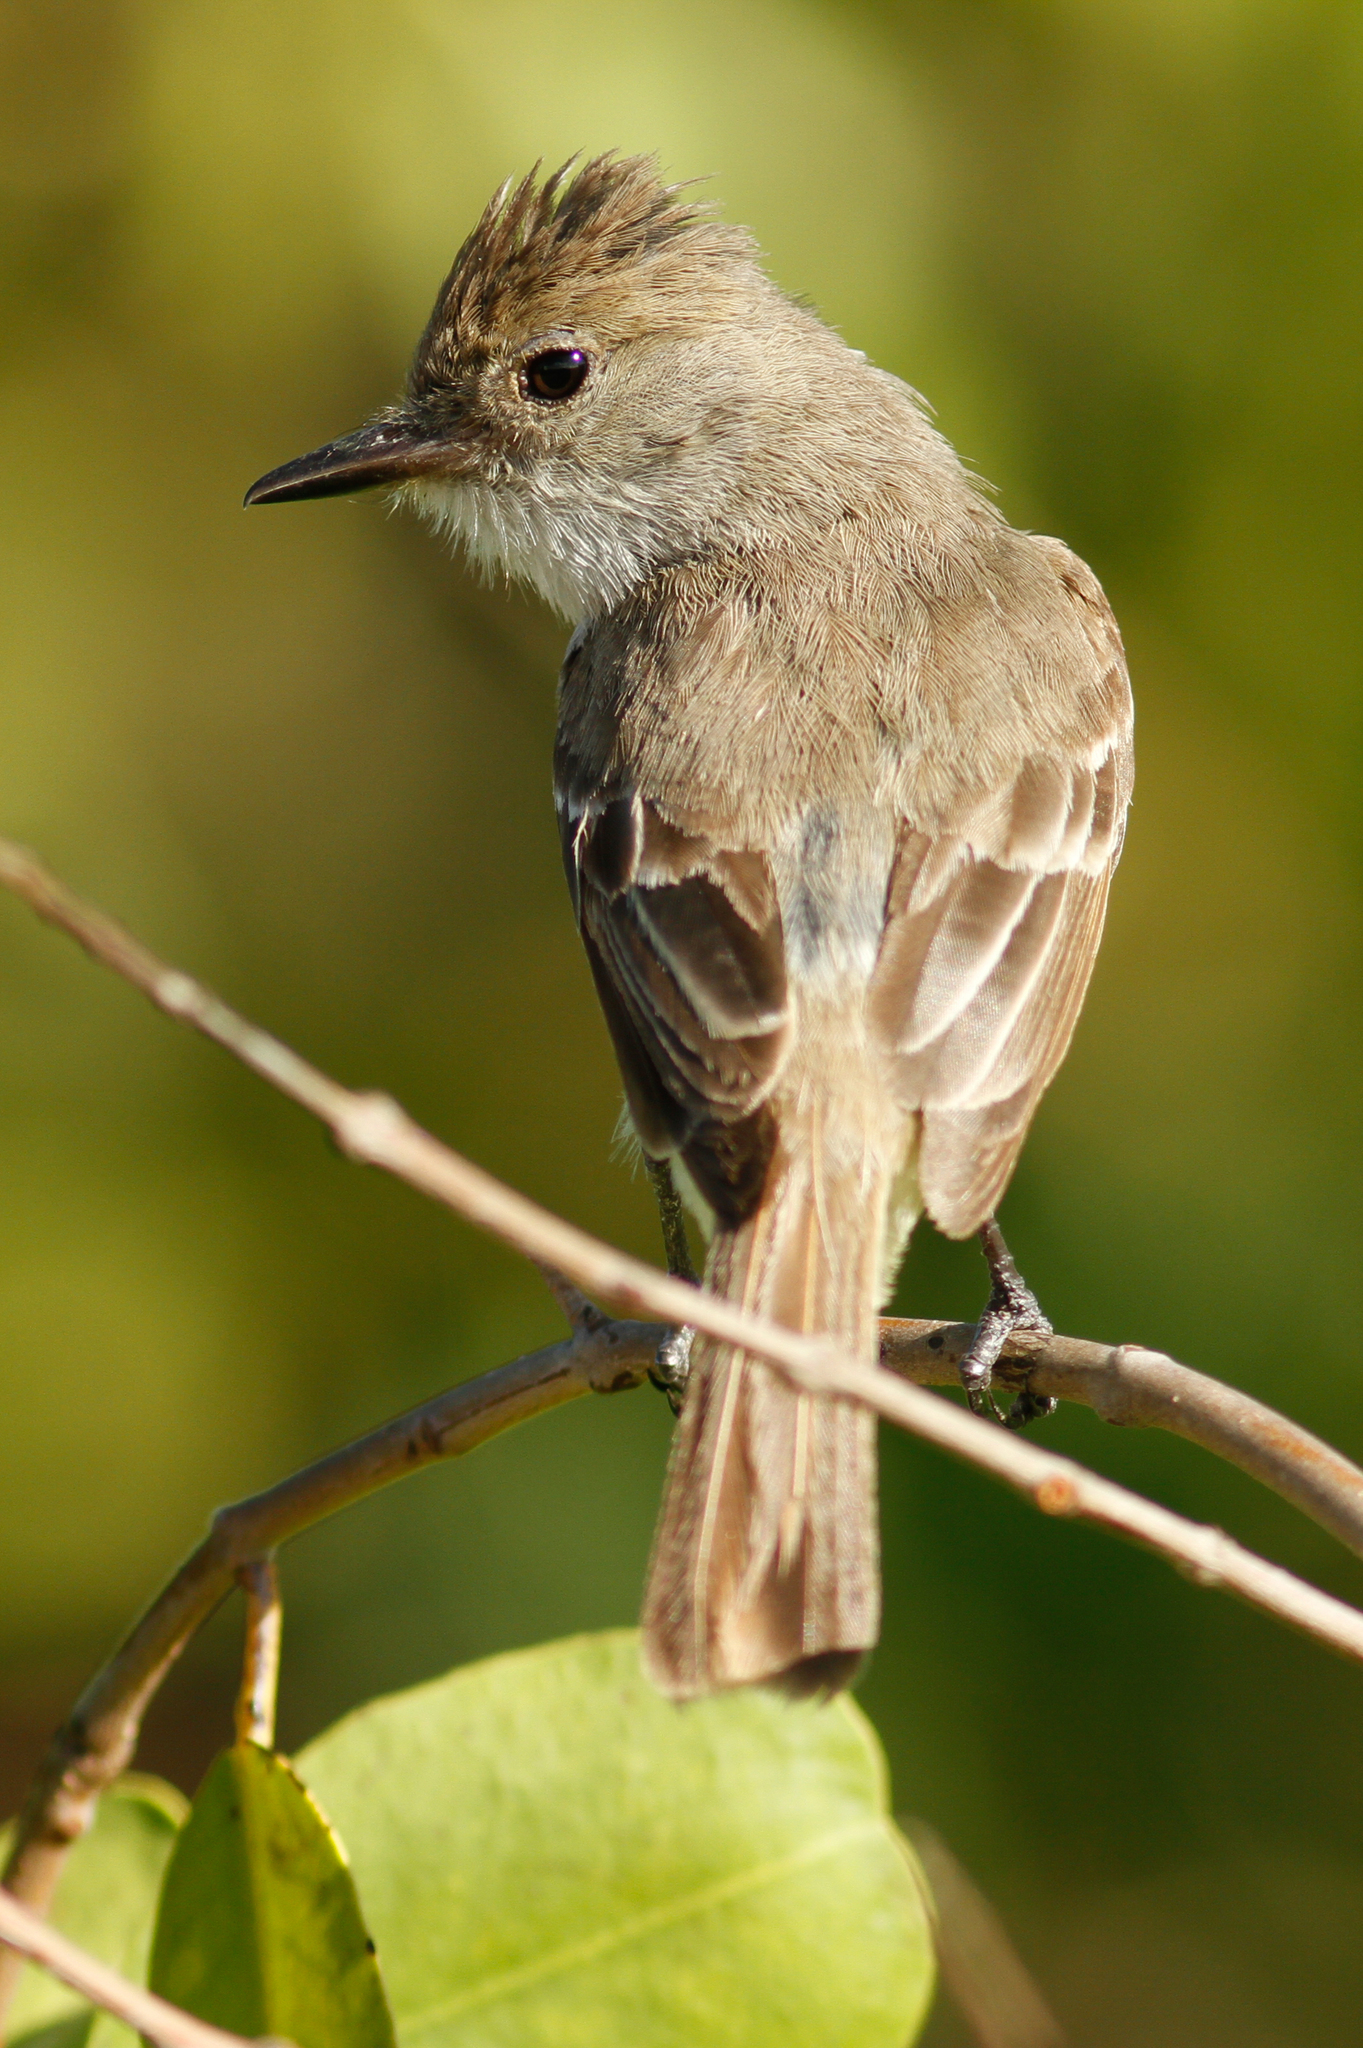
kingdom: Animalia
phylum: Chordata
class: Aves
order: Passeriformes
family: Tyrannidae
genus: Myiarchus
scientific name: Myiarchus magnirostris
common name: Galapagos flycatcher
